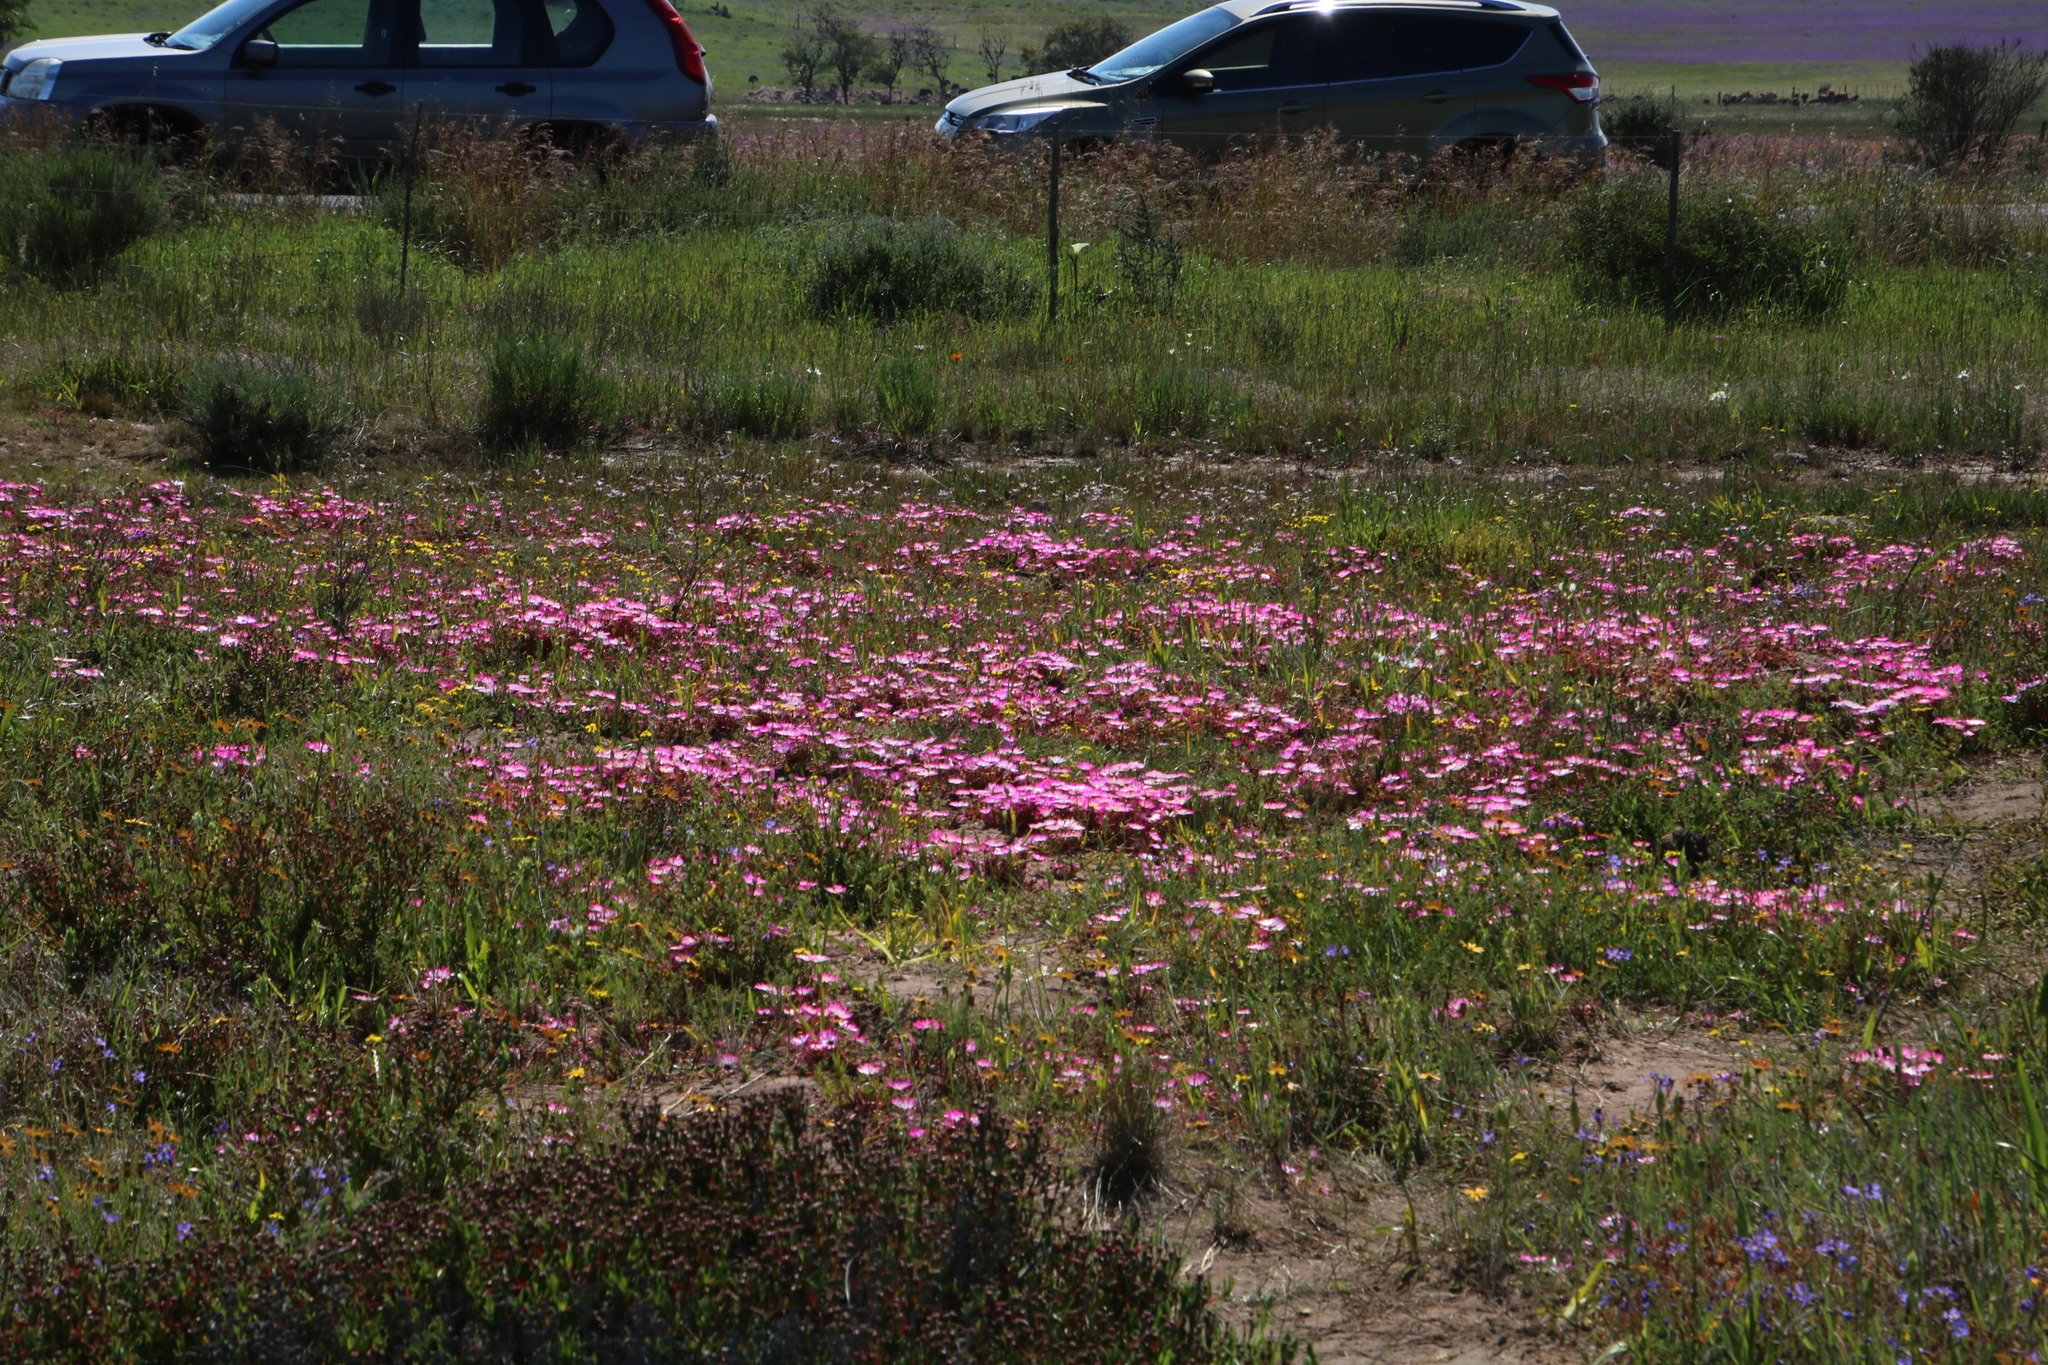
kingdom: Plantae
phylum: Tracheophyta
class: Magnoliopsida
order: Caryophyllales
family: Aizoaceae
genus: Cleretum
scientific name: Cleretum bellidiforme
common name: Livingstone daisy
